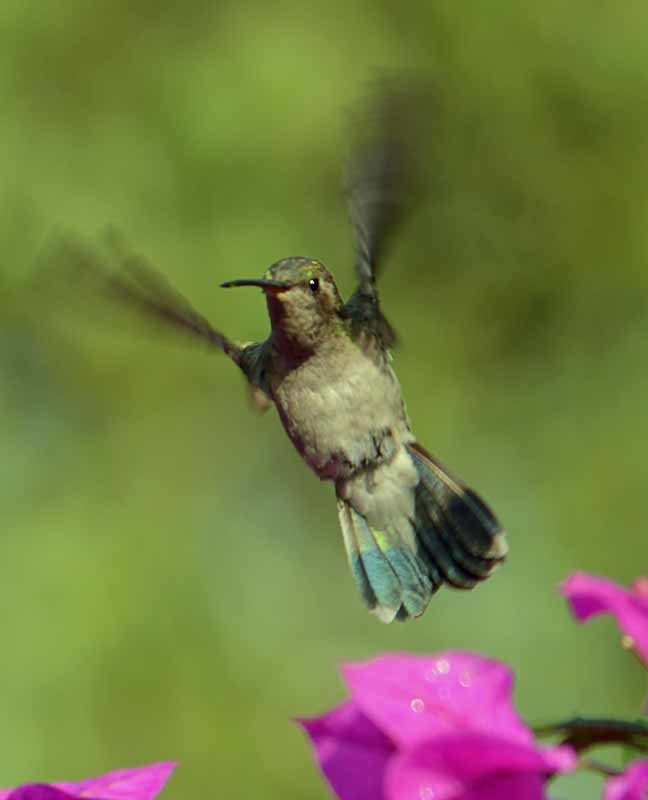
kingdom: Animalia
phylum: Chordata
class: Aves
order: Apodiformes
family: Trochilidae
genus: Cynanthus
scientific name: Cynanthus latirostris
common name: Broad-billed hummingbird
